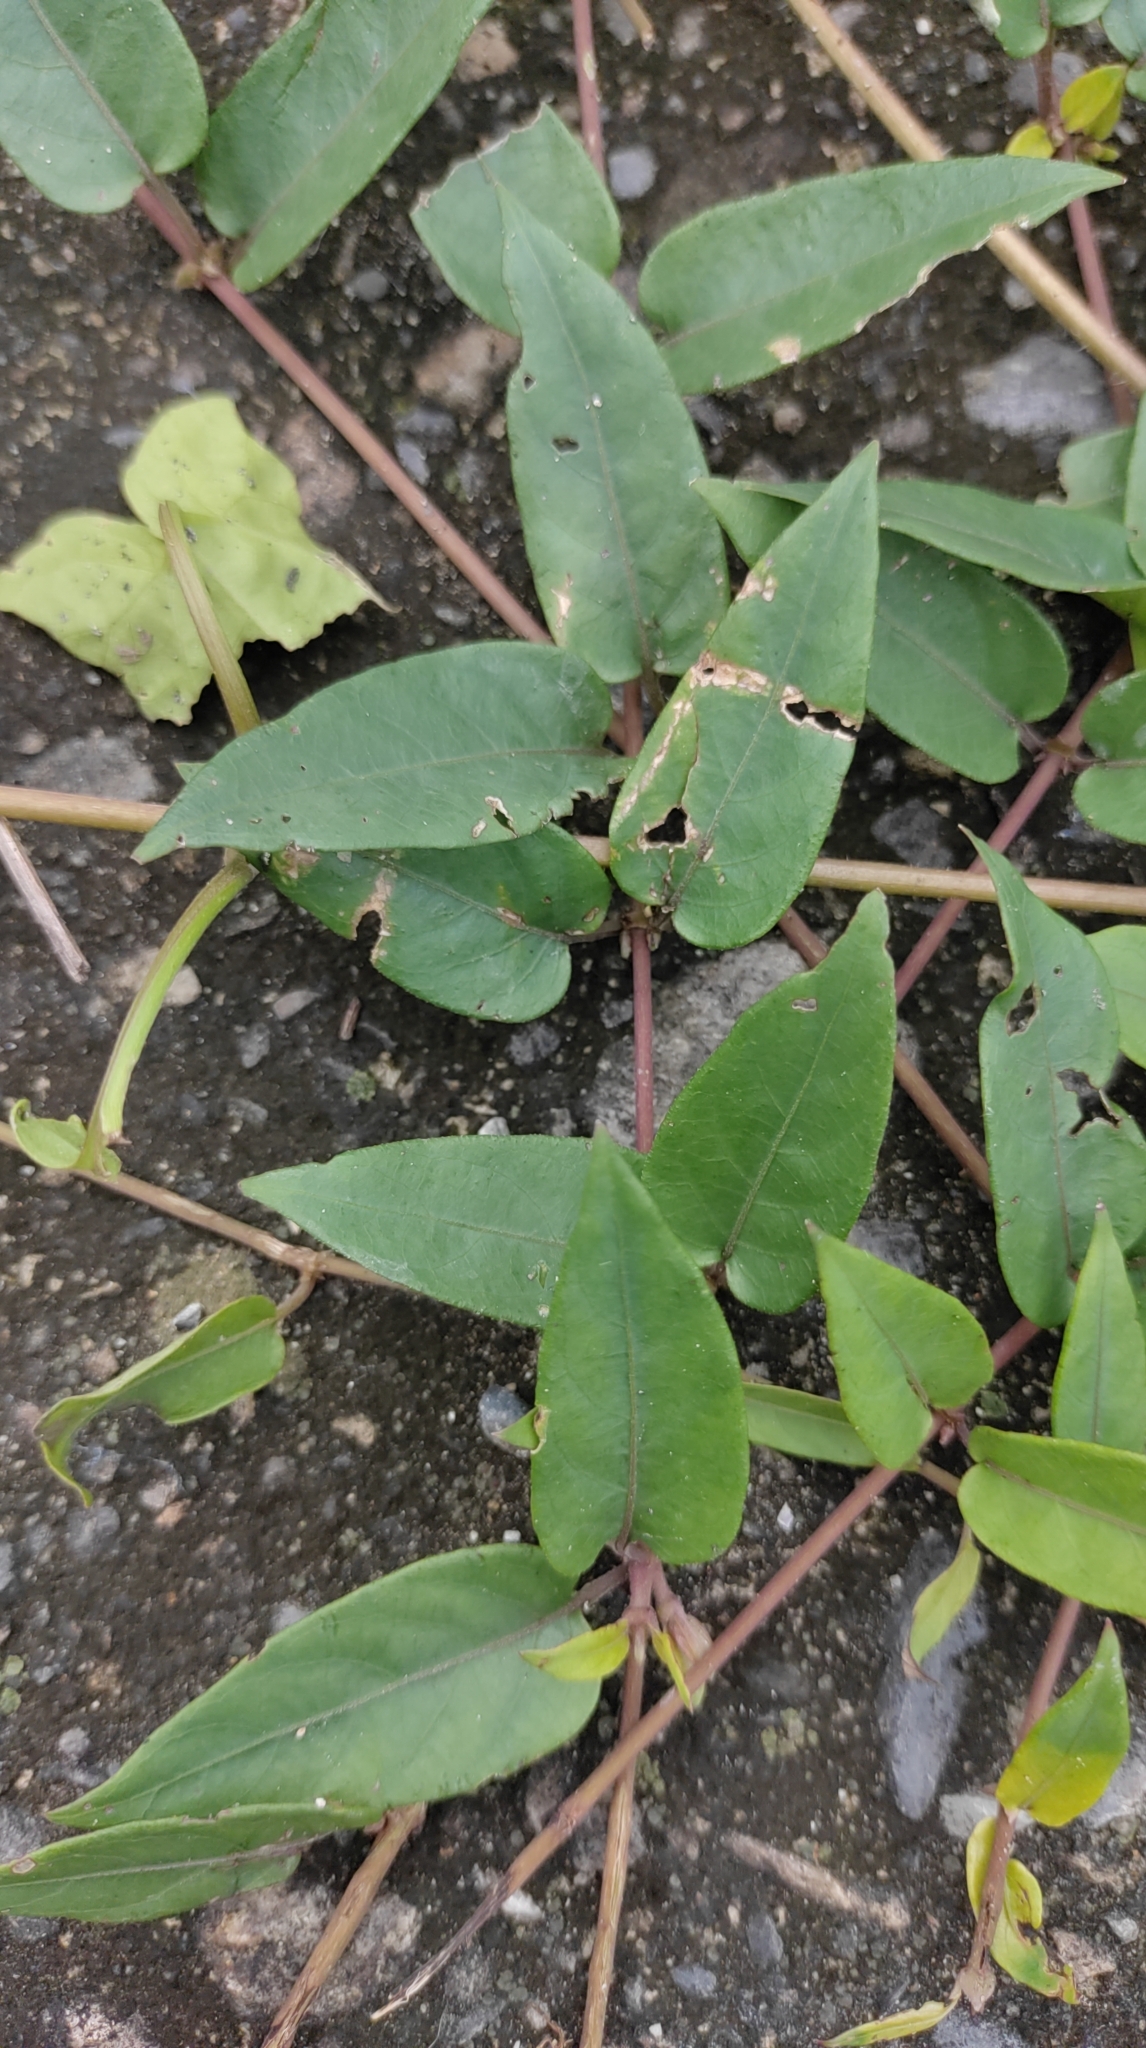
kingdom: Plantae
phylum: Tracheophyta
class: Magnoliopsida
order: Gentianales
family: Rubiaceae
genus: Paederia
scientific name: Paederia foetida
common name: Stinkvine
